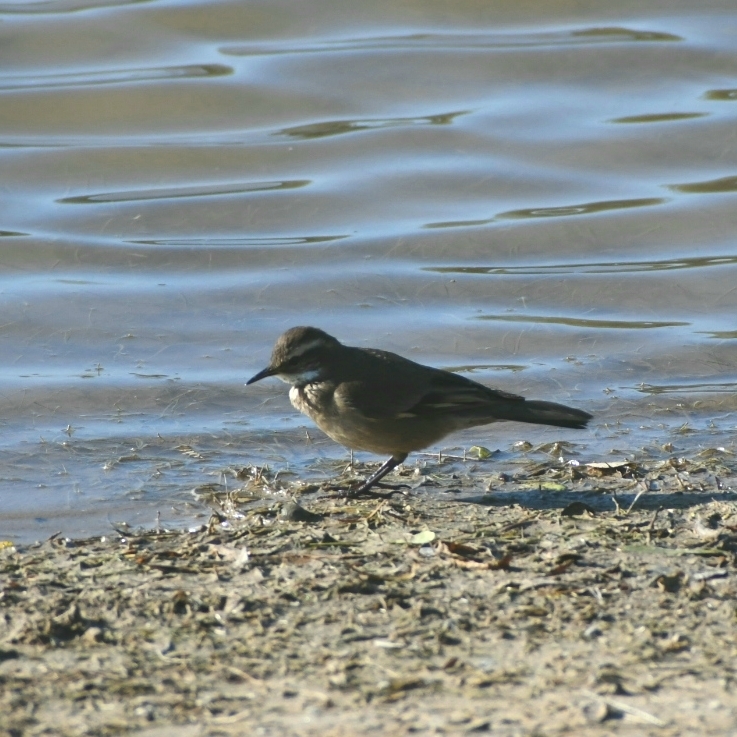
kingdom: Animalia
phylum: Chordata
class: Aves
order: Passeriformes
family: Furnariidae
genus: Cinclodes
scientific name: Cinclodes fuscus
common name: Buff-winged cinclodes
